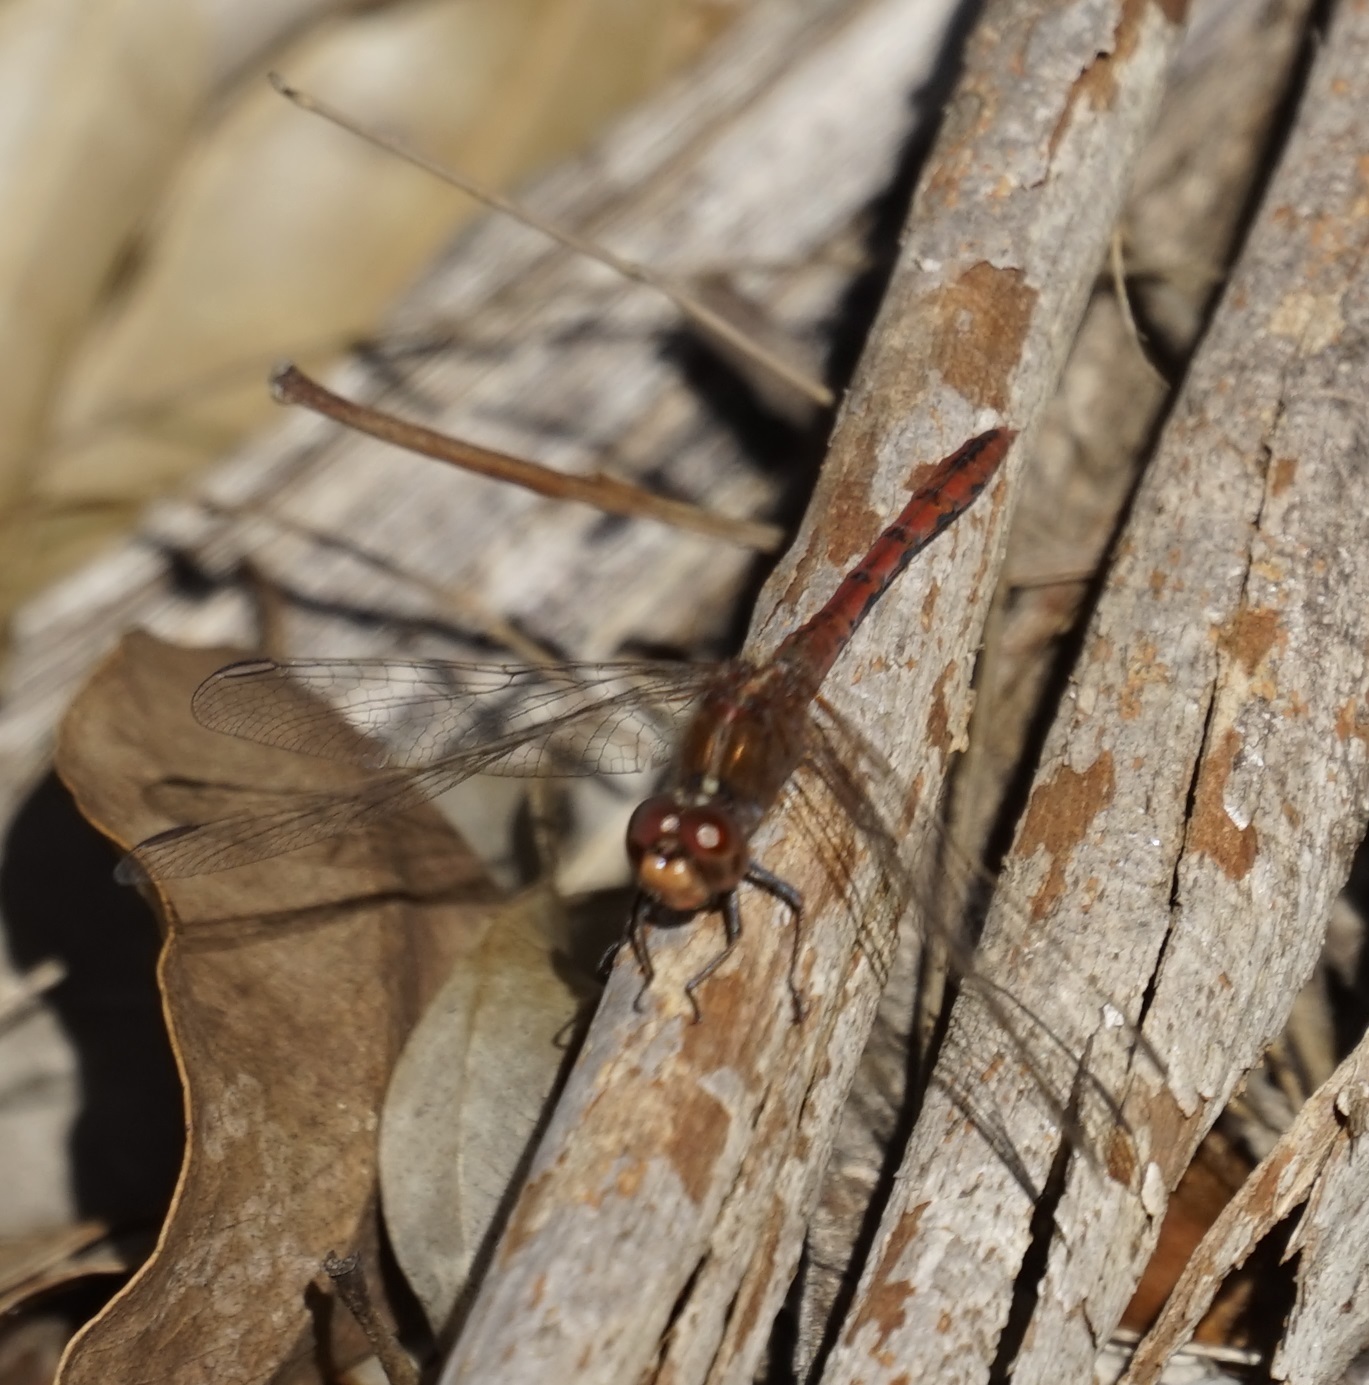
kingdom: Animalia
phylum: Arthropoda
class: Insecta
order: Odonata
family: Libellulidae
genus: Diplacodes
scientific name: Diplacodes bipunctata
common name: Red percher dragonfly
